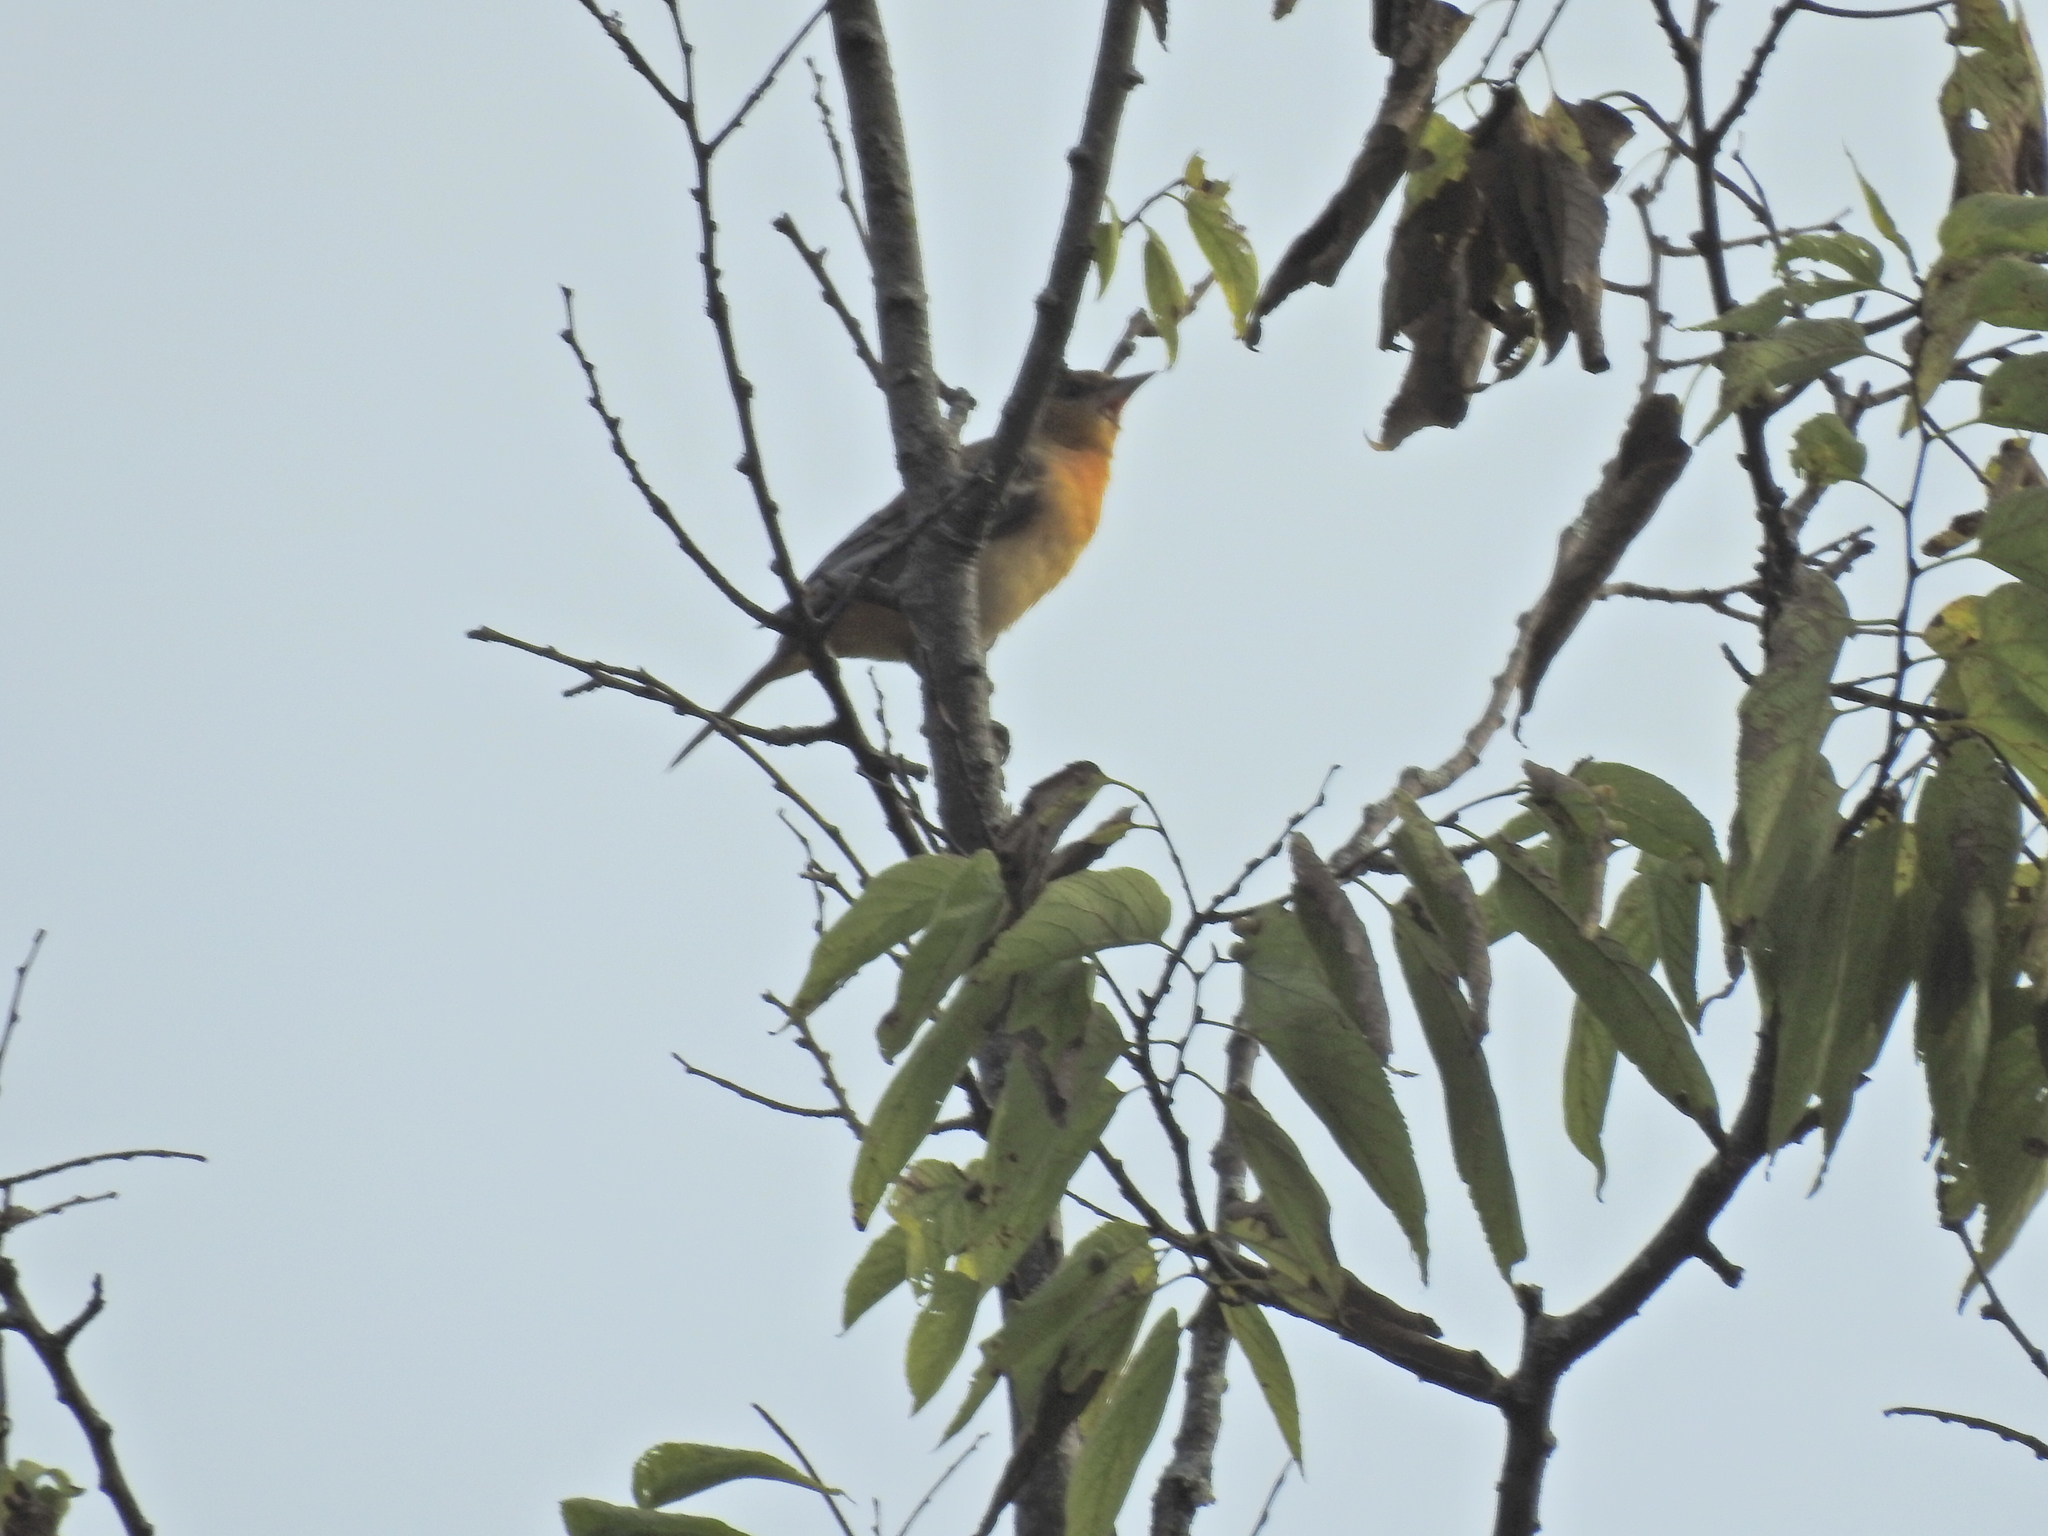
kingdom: Animalia
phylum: Chordata
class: Aves
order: Passeriformes
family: Icteridae
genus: Icterus
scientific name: Icterus galbula
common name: Baltimore oriole
